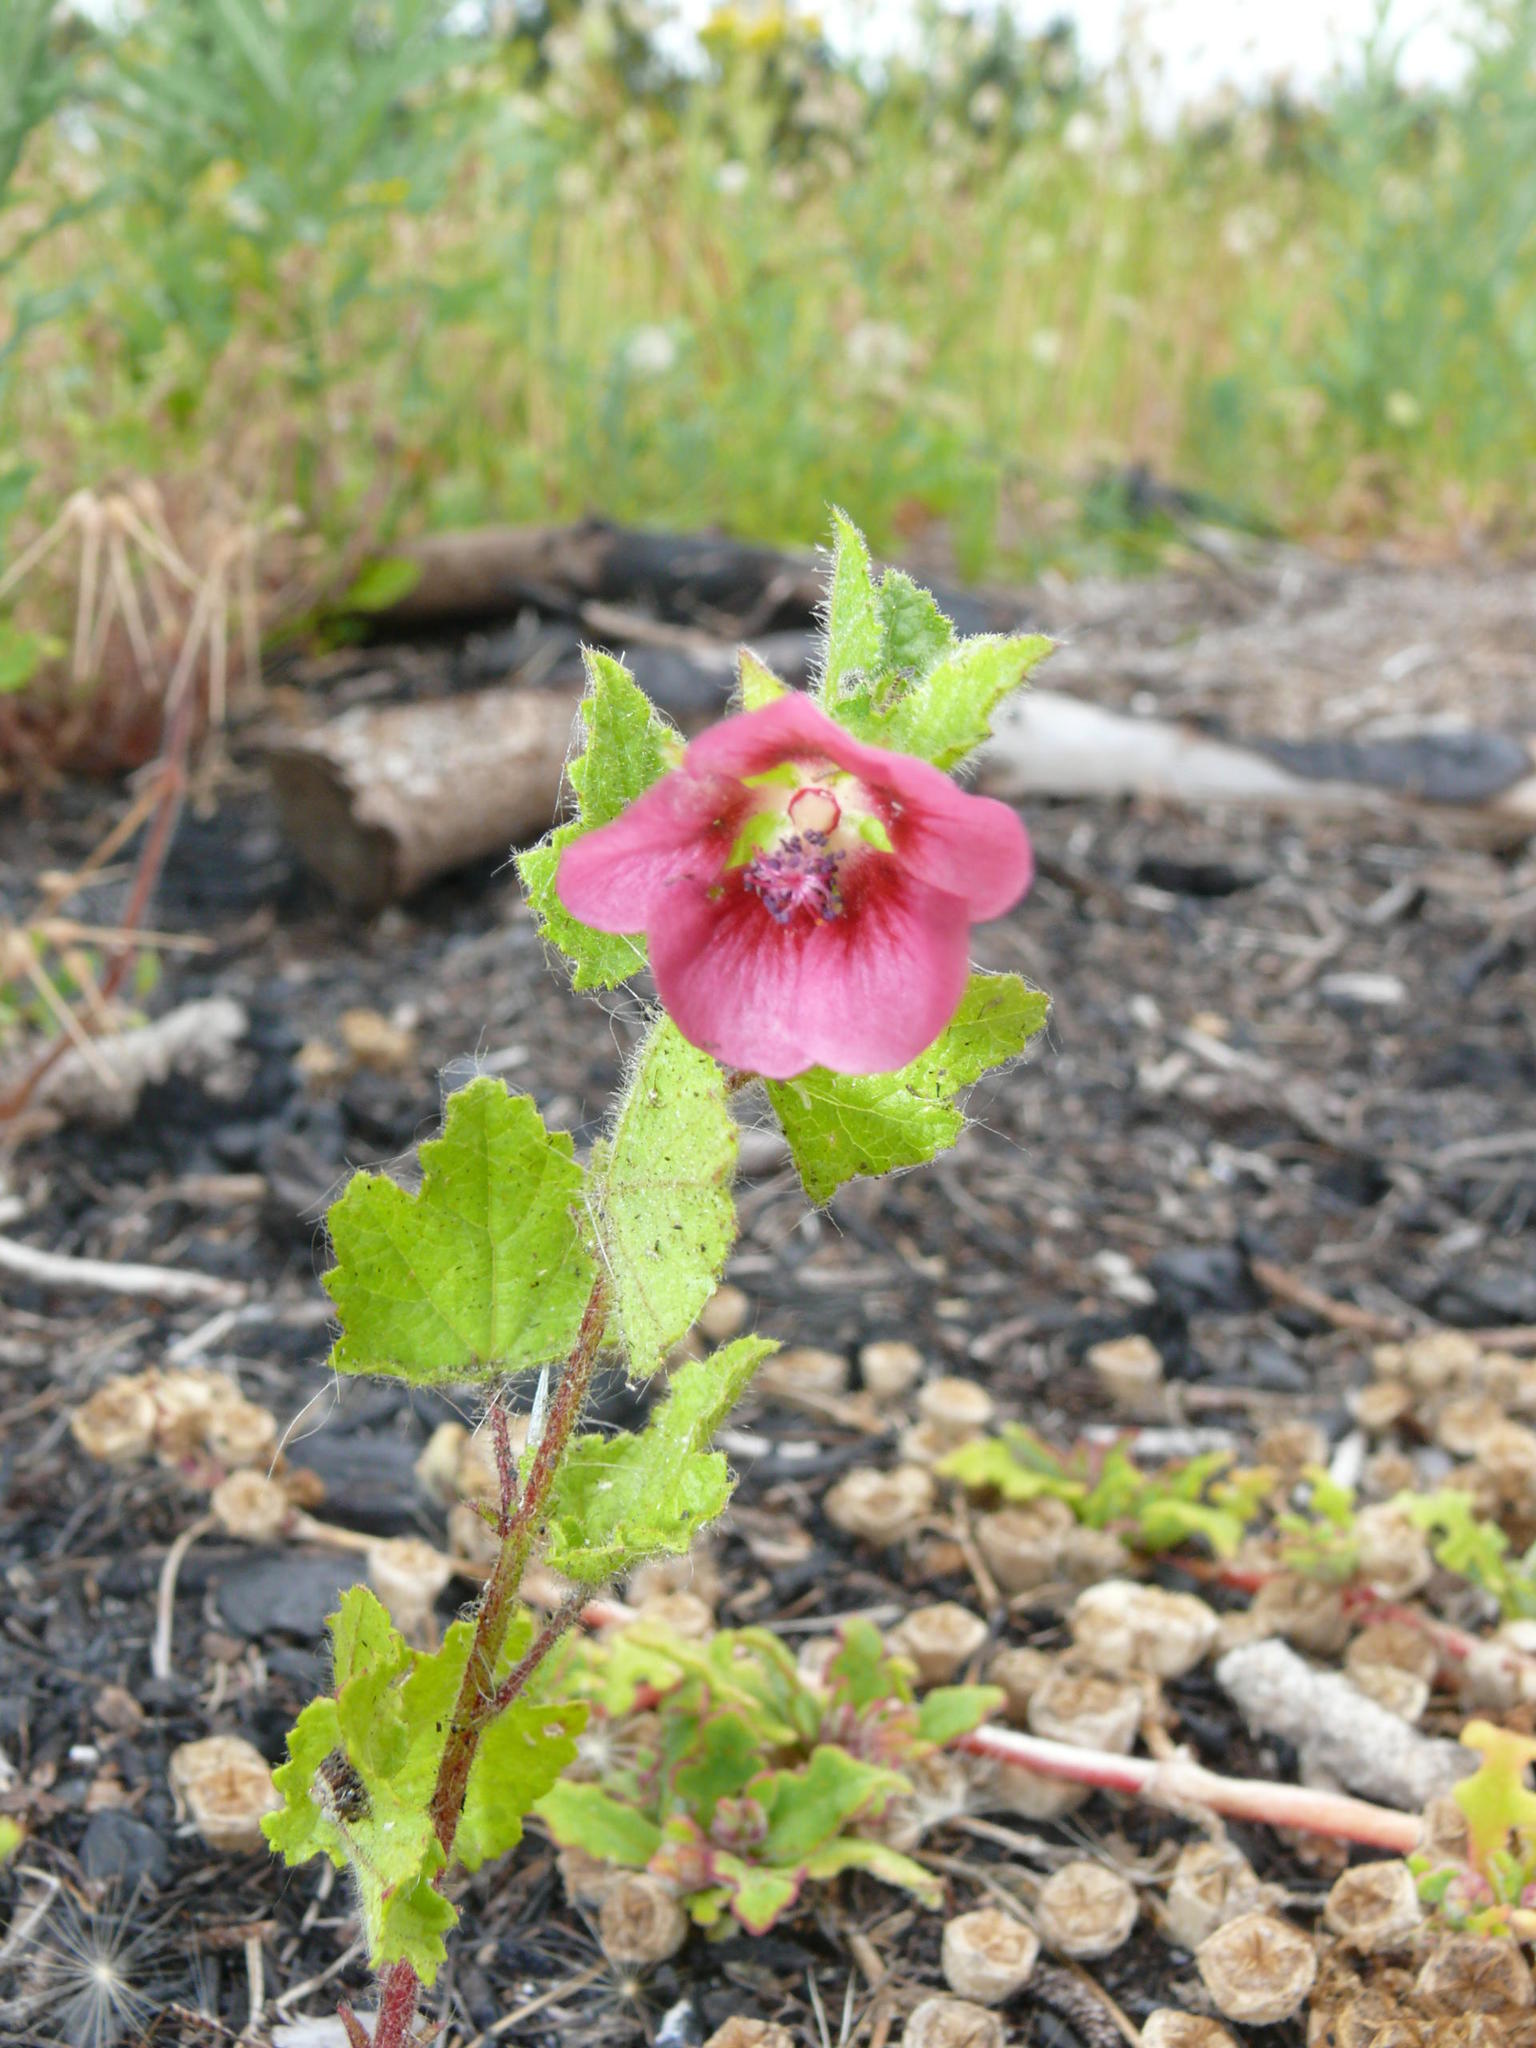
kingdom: Plantae
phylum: Tracheophyta
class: Magnoliopsida
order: Malvales
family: Malvaceae
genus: Anisodontea
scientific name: Anisodontea scabrosa
